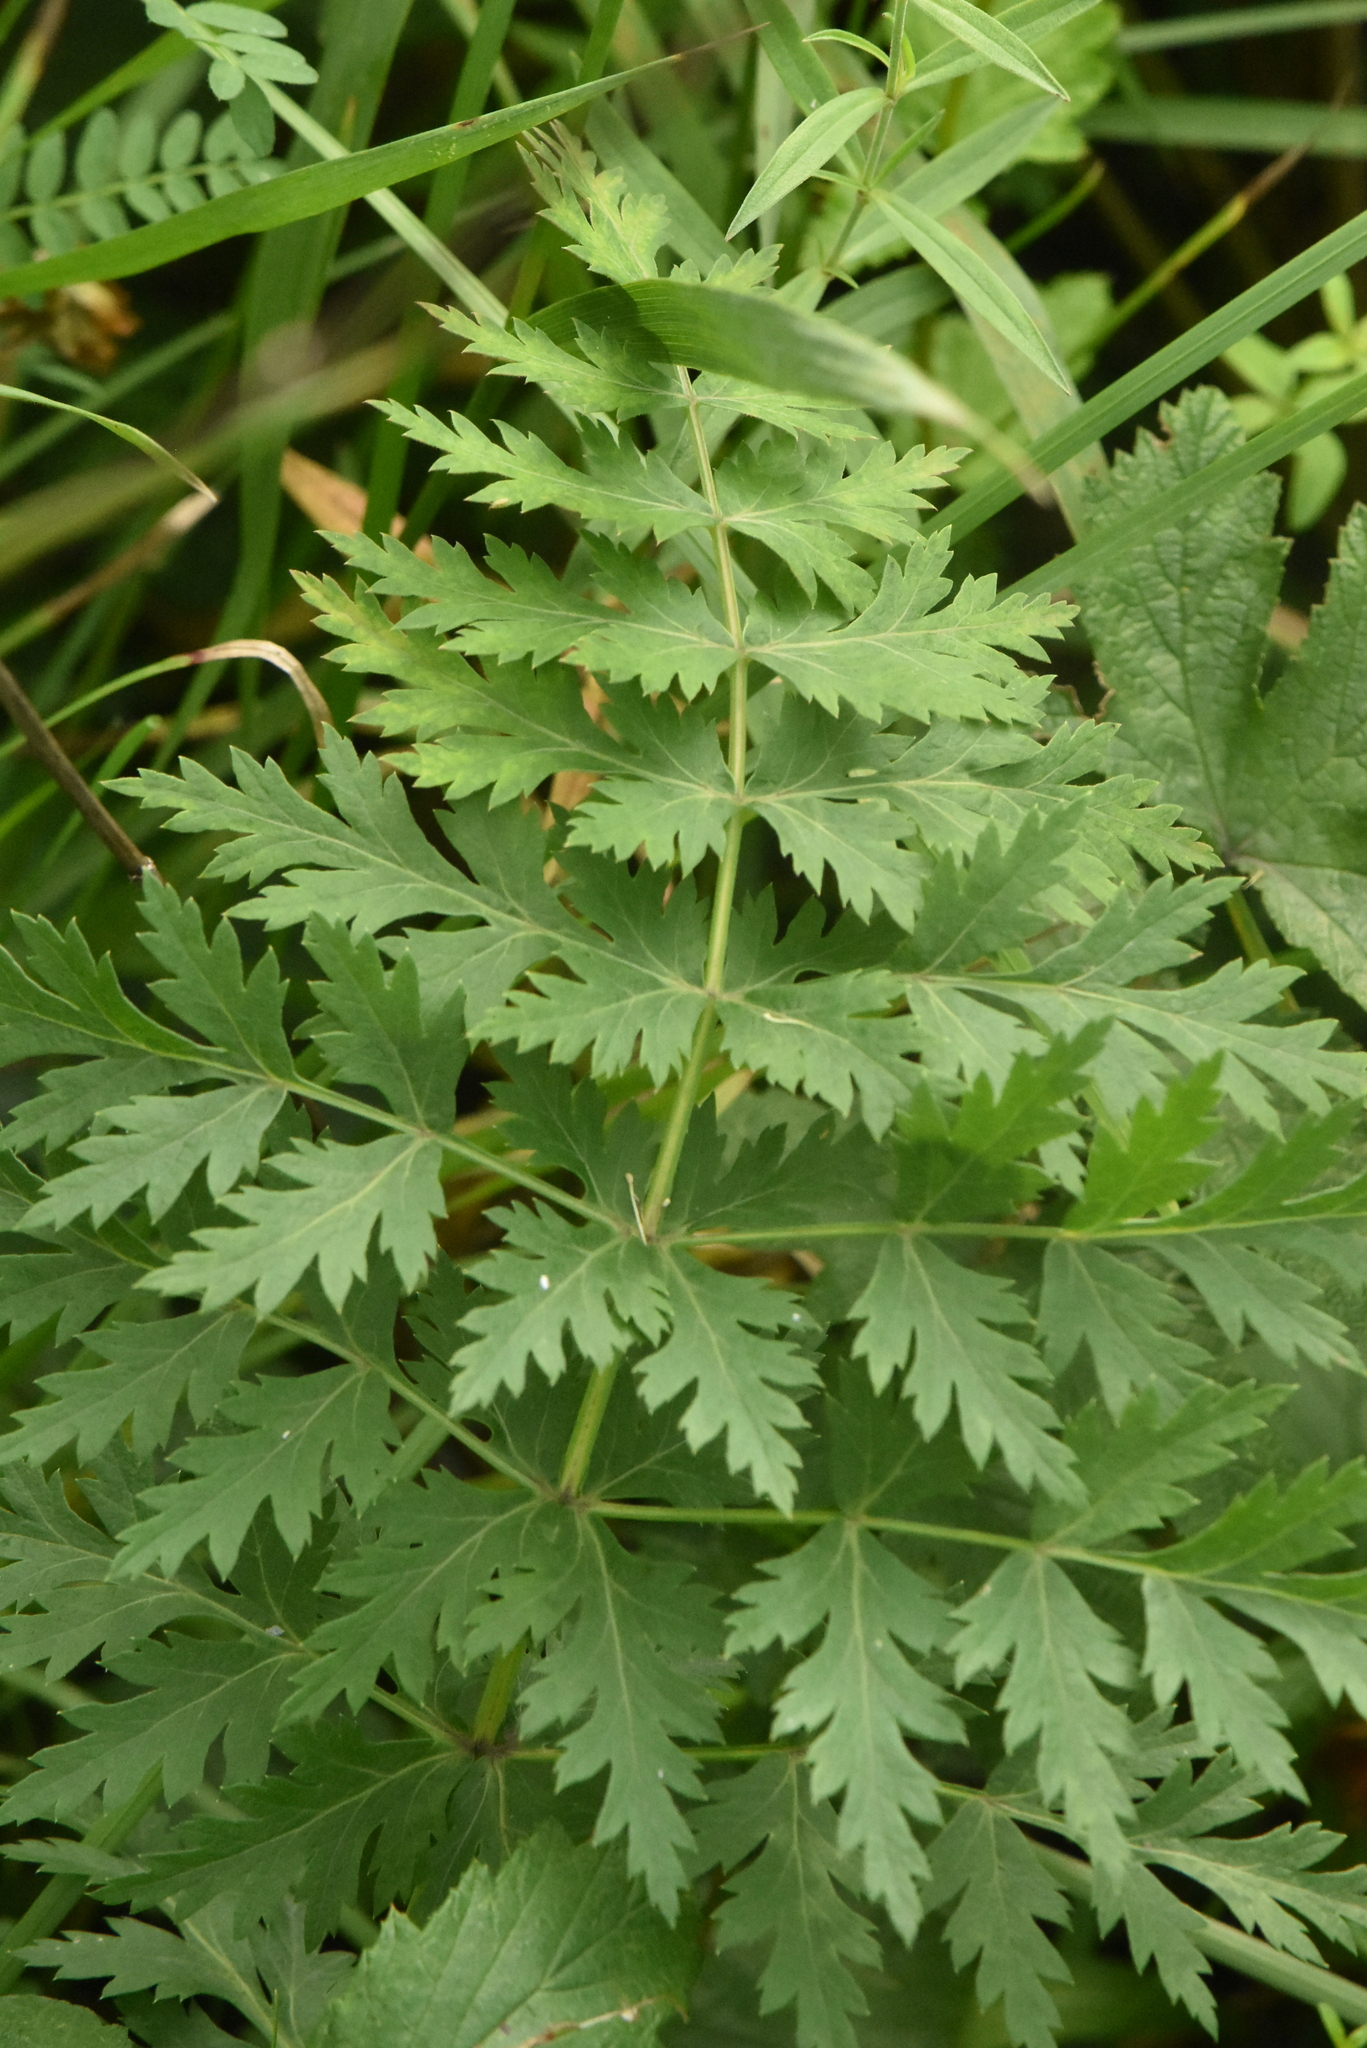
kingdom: Plantae
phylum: Tracheophyta
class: Magnoliopsida
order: Apiales
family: Apiaceae
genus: Seseli
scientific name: Seseli libanotis
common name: Mooncarrot
